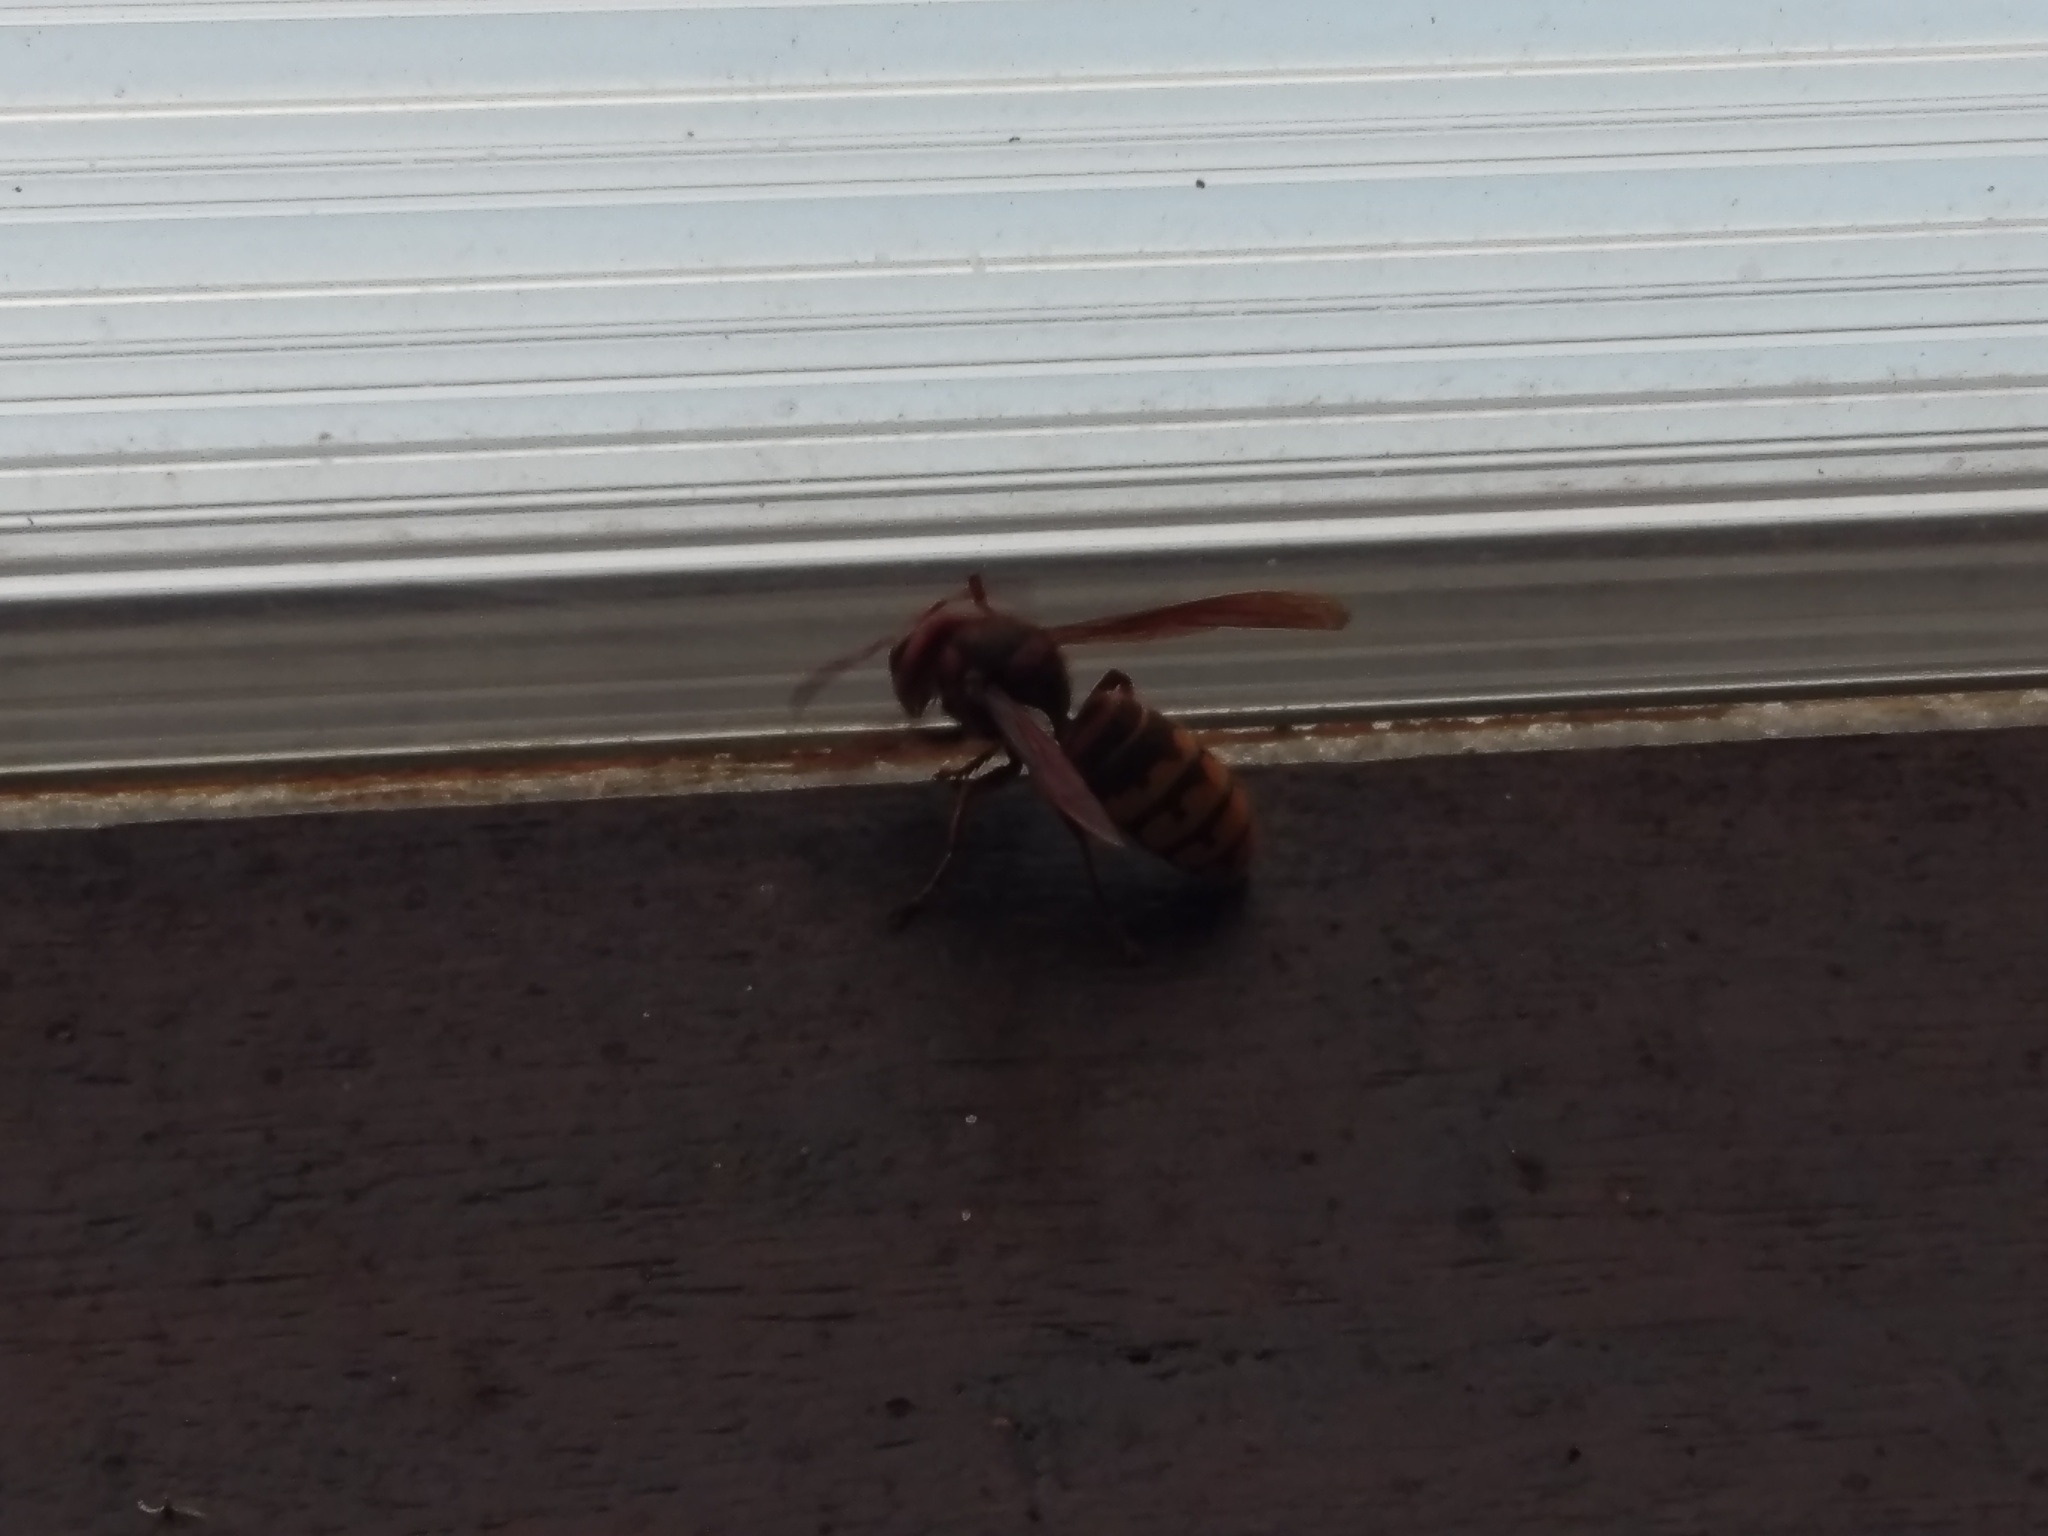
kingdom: Animalia
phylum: Arthropoda
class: Insecta
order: Hymenoptera
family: Vespidae
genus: Vespa
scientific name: Vespa crabro
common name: Hornet
